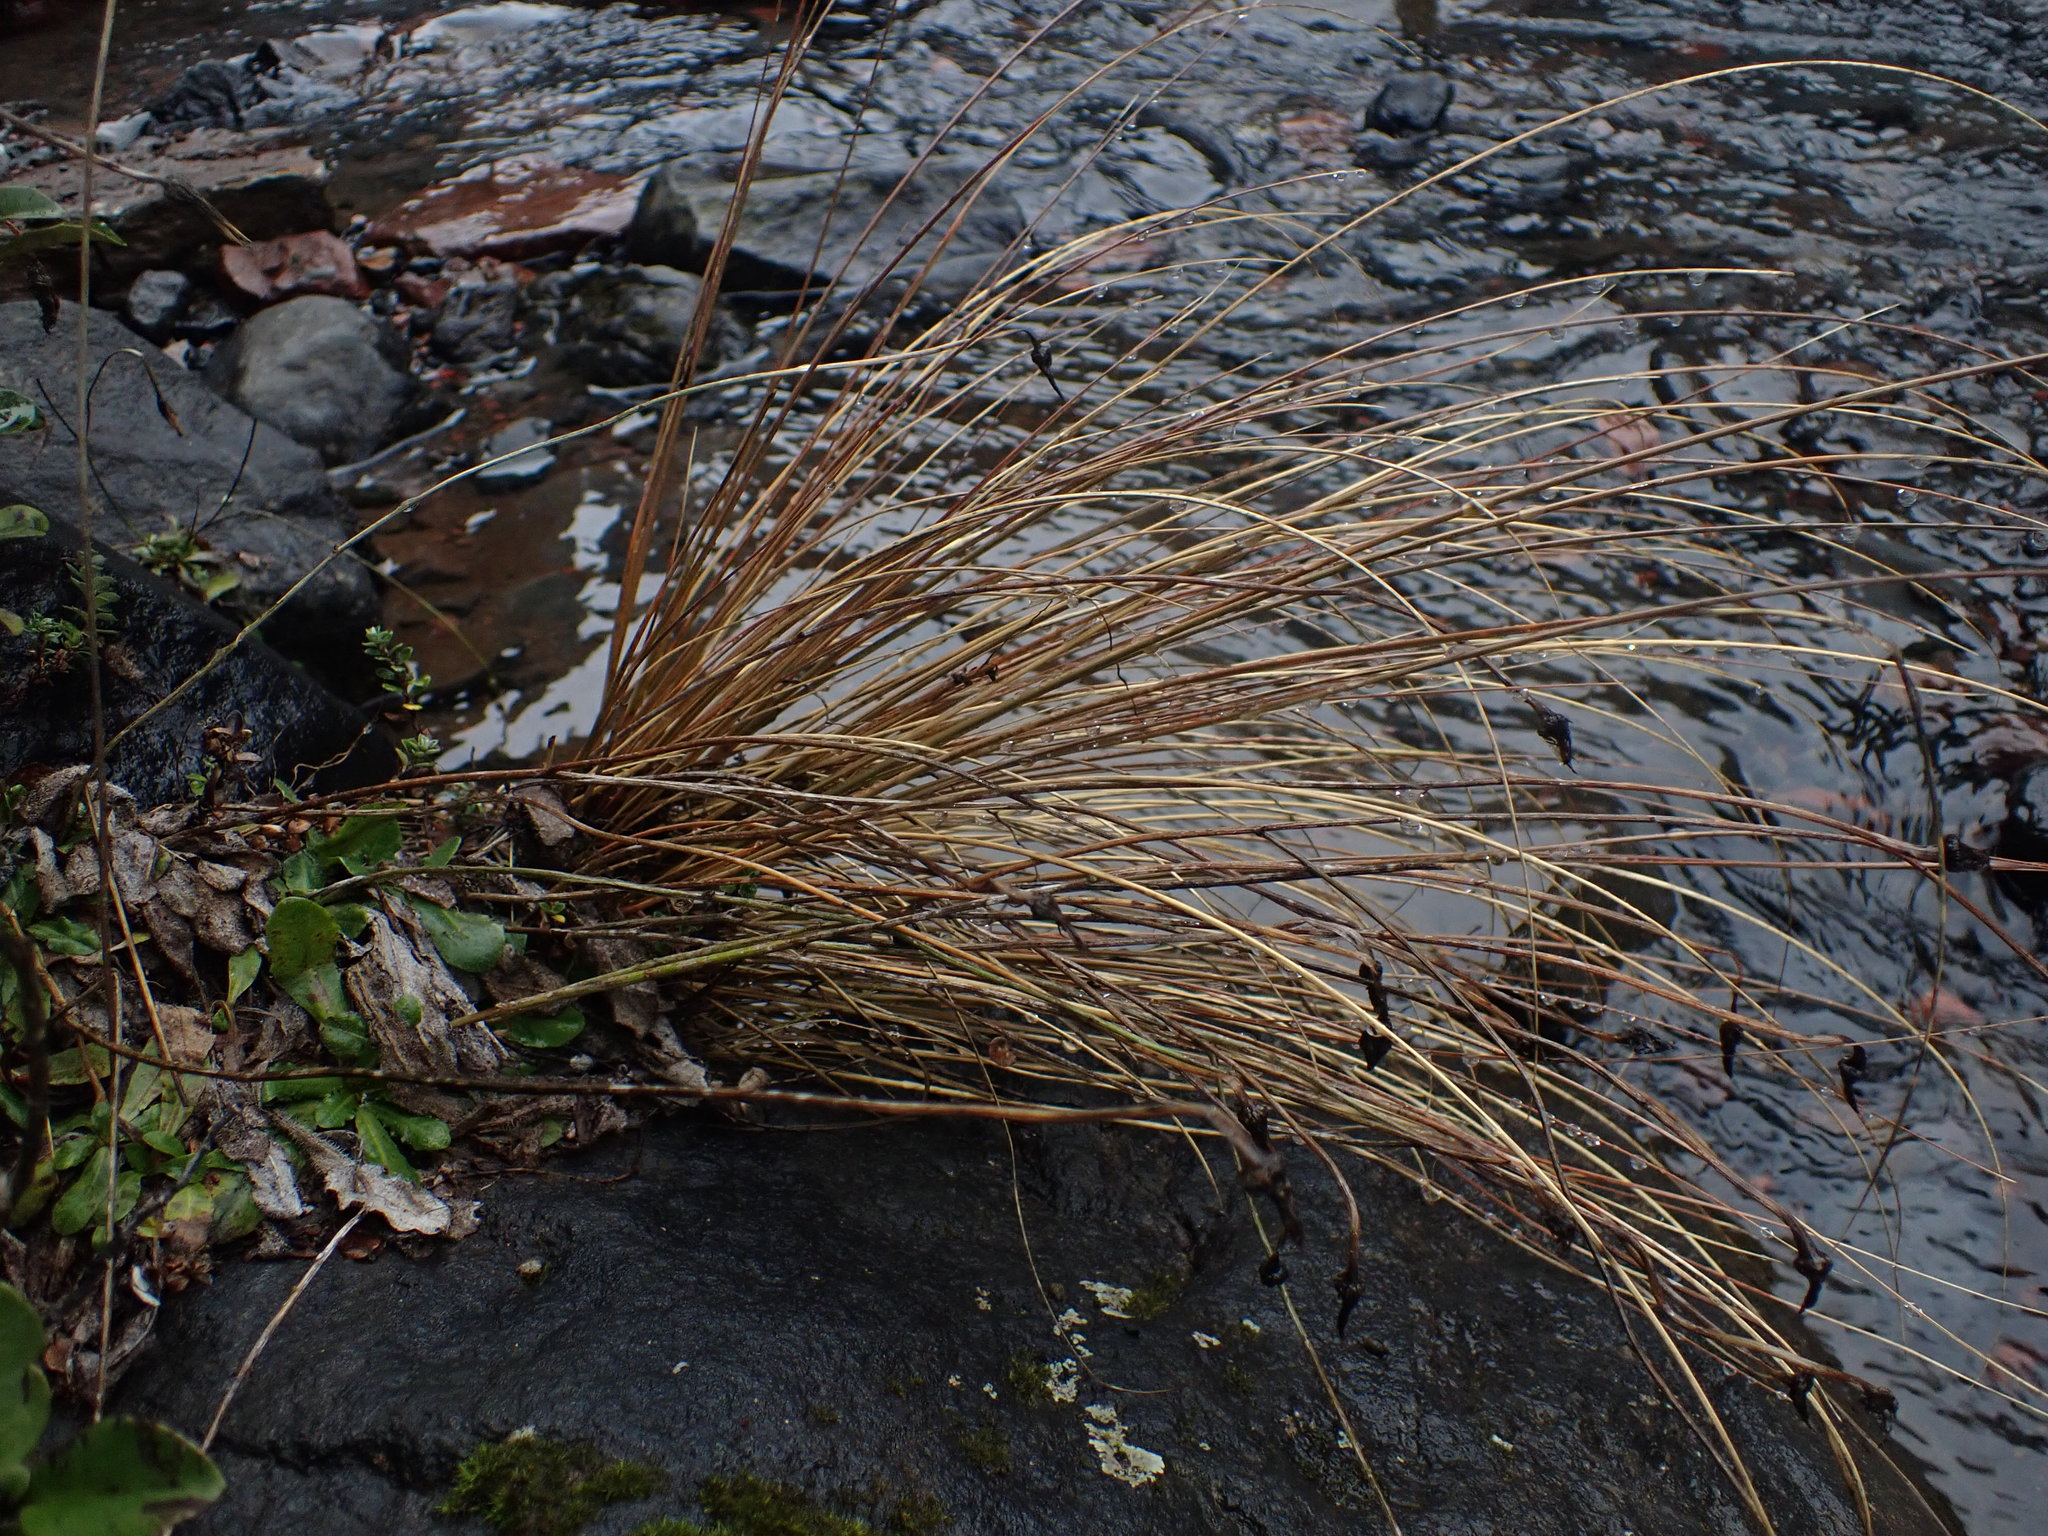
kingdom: Plantae
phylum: Tracheophyta
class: Liliopsida
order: Poales
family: Poaceae
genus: Chionochloa
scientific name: Chionochloa rubra
